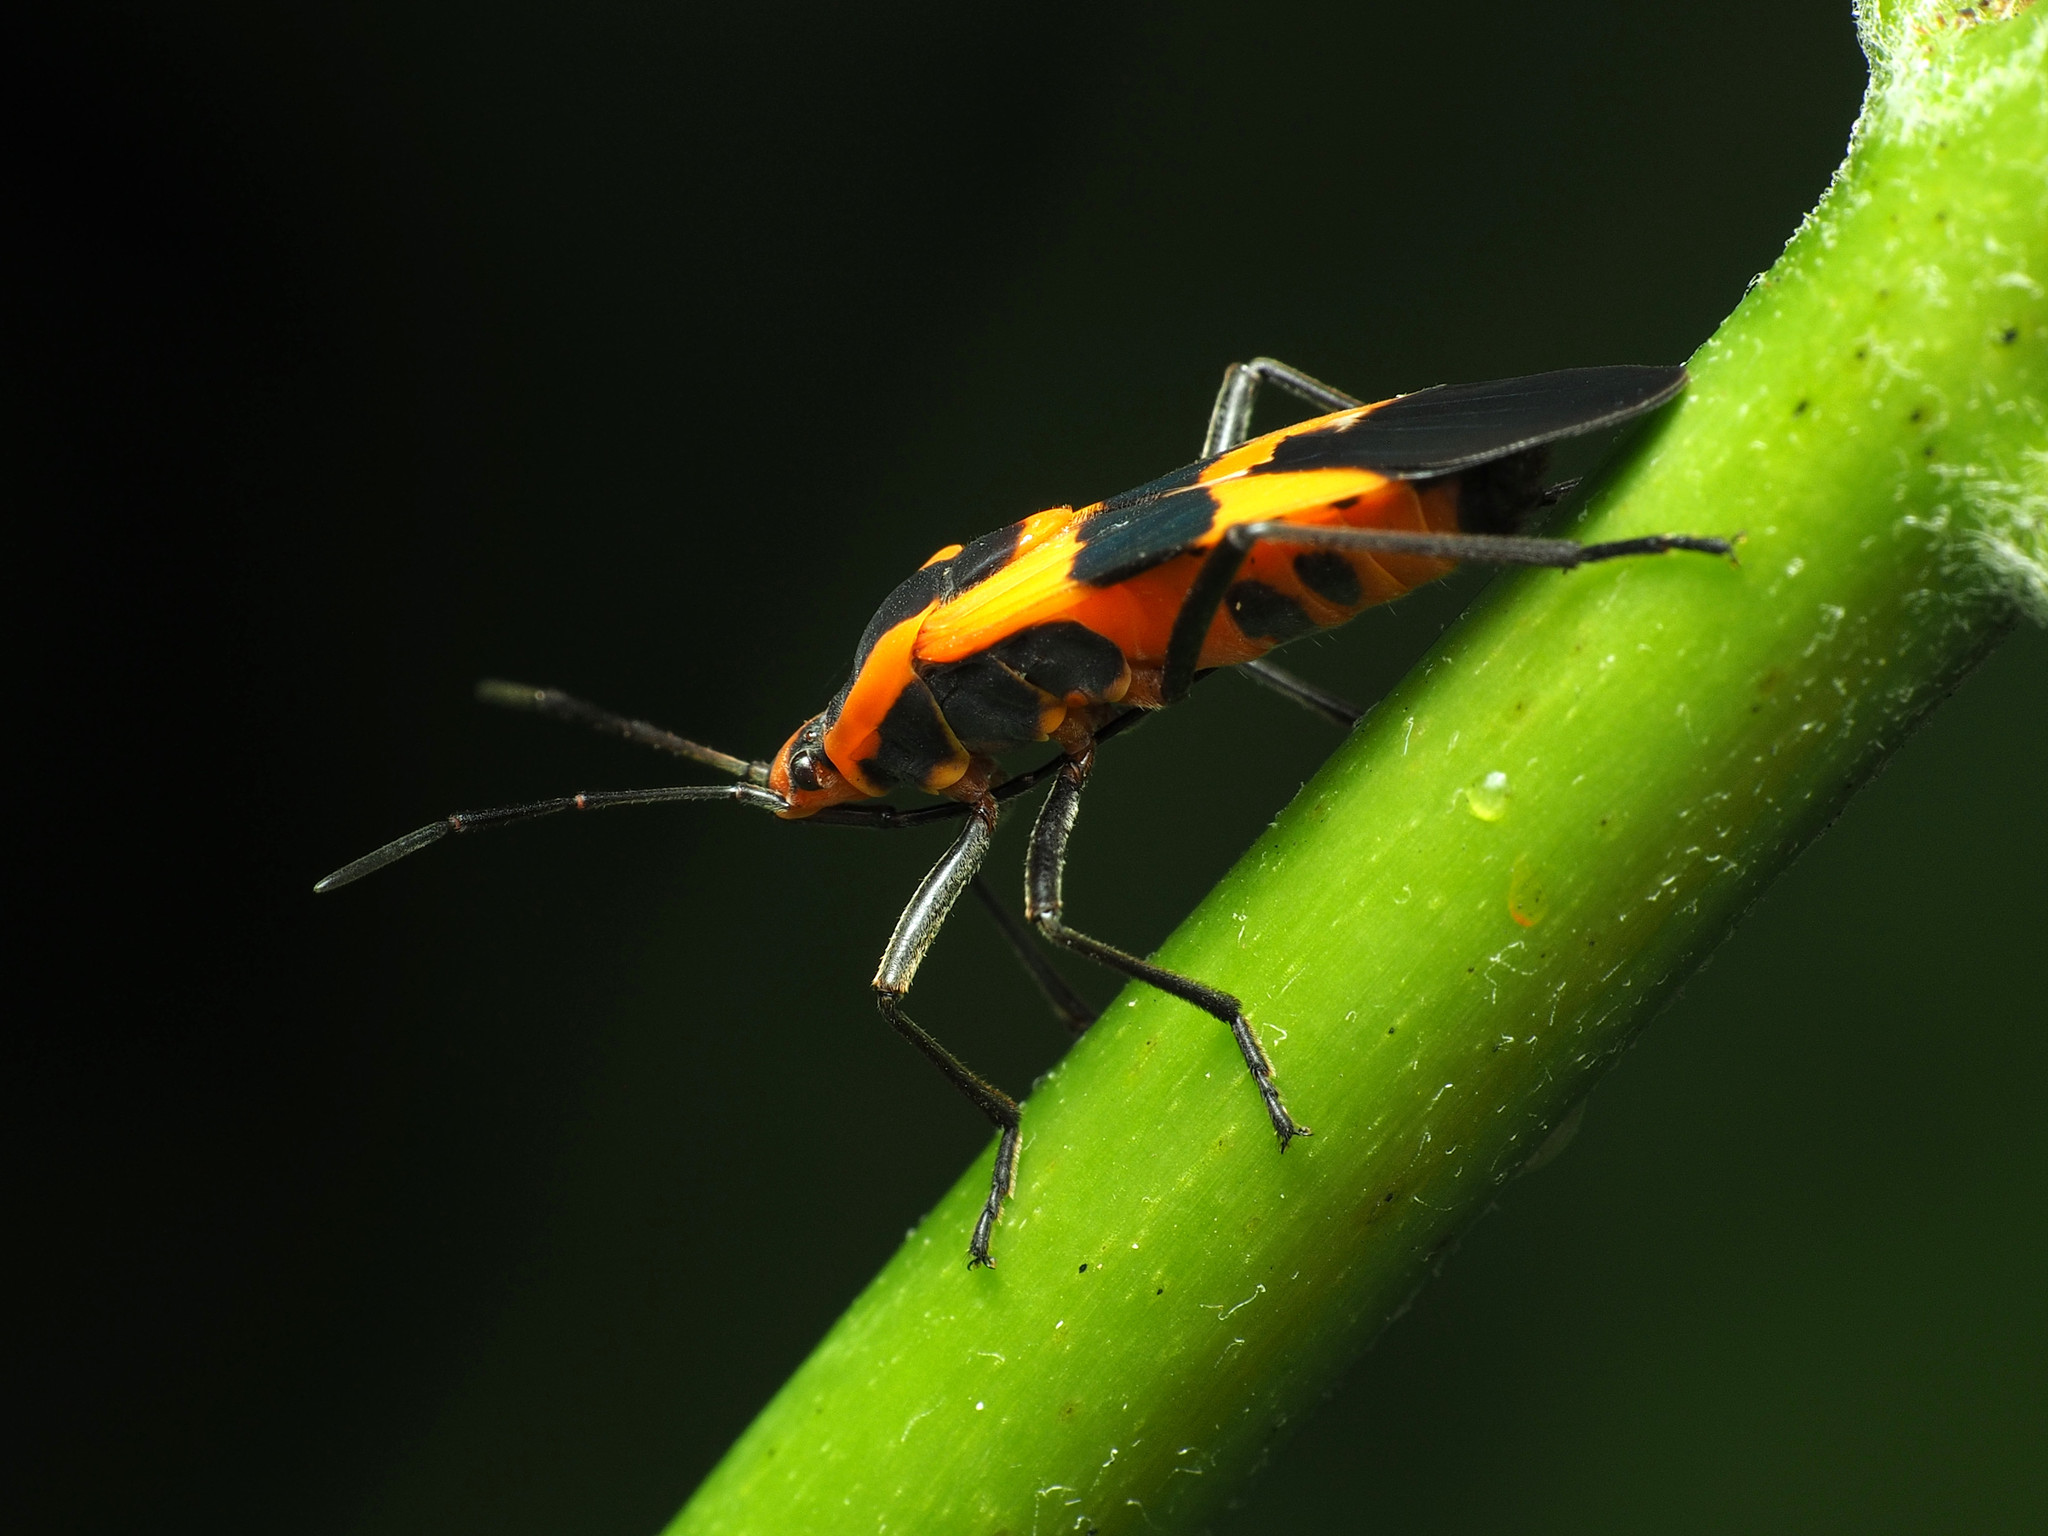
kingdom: Animalia
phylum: Arthropoda
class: Insecta
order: Hemiptera
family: Lygaeidae
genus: Oncopeltus
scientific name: Oncopeltus fasciatus
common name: Large milkweed bug
